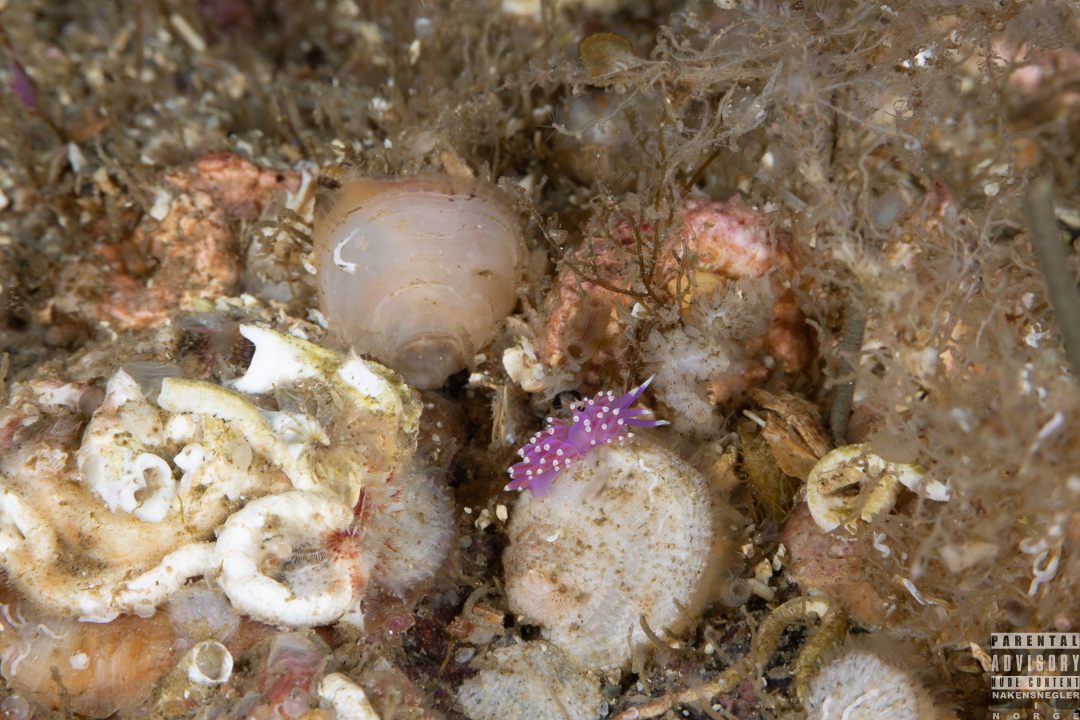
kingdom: Animalia
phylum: Mollusca
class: Gastropoda
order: Nudibranchia
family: Flabellinidae
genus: Edmundsella
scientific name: Edmundsella pedata
